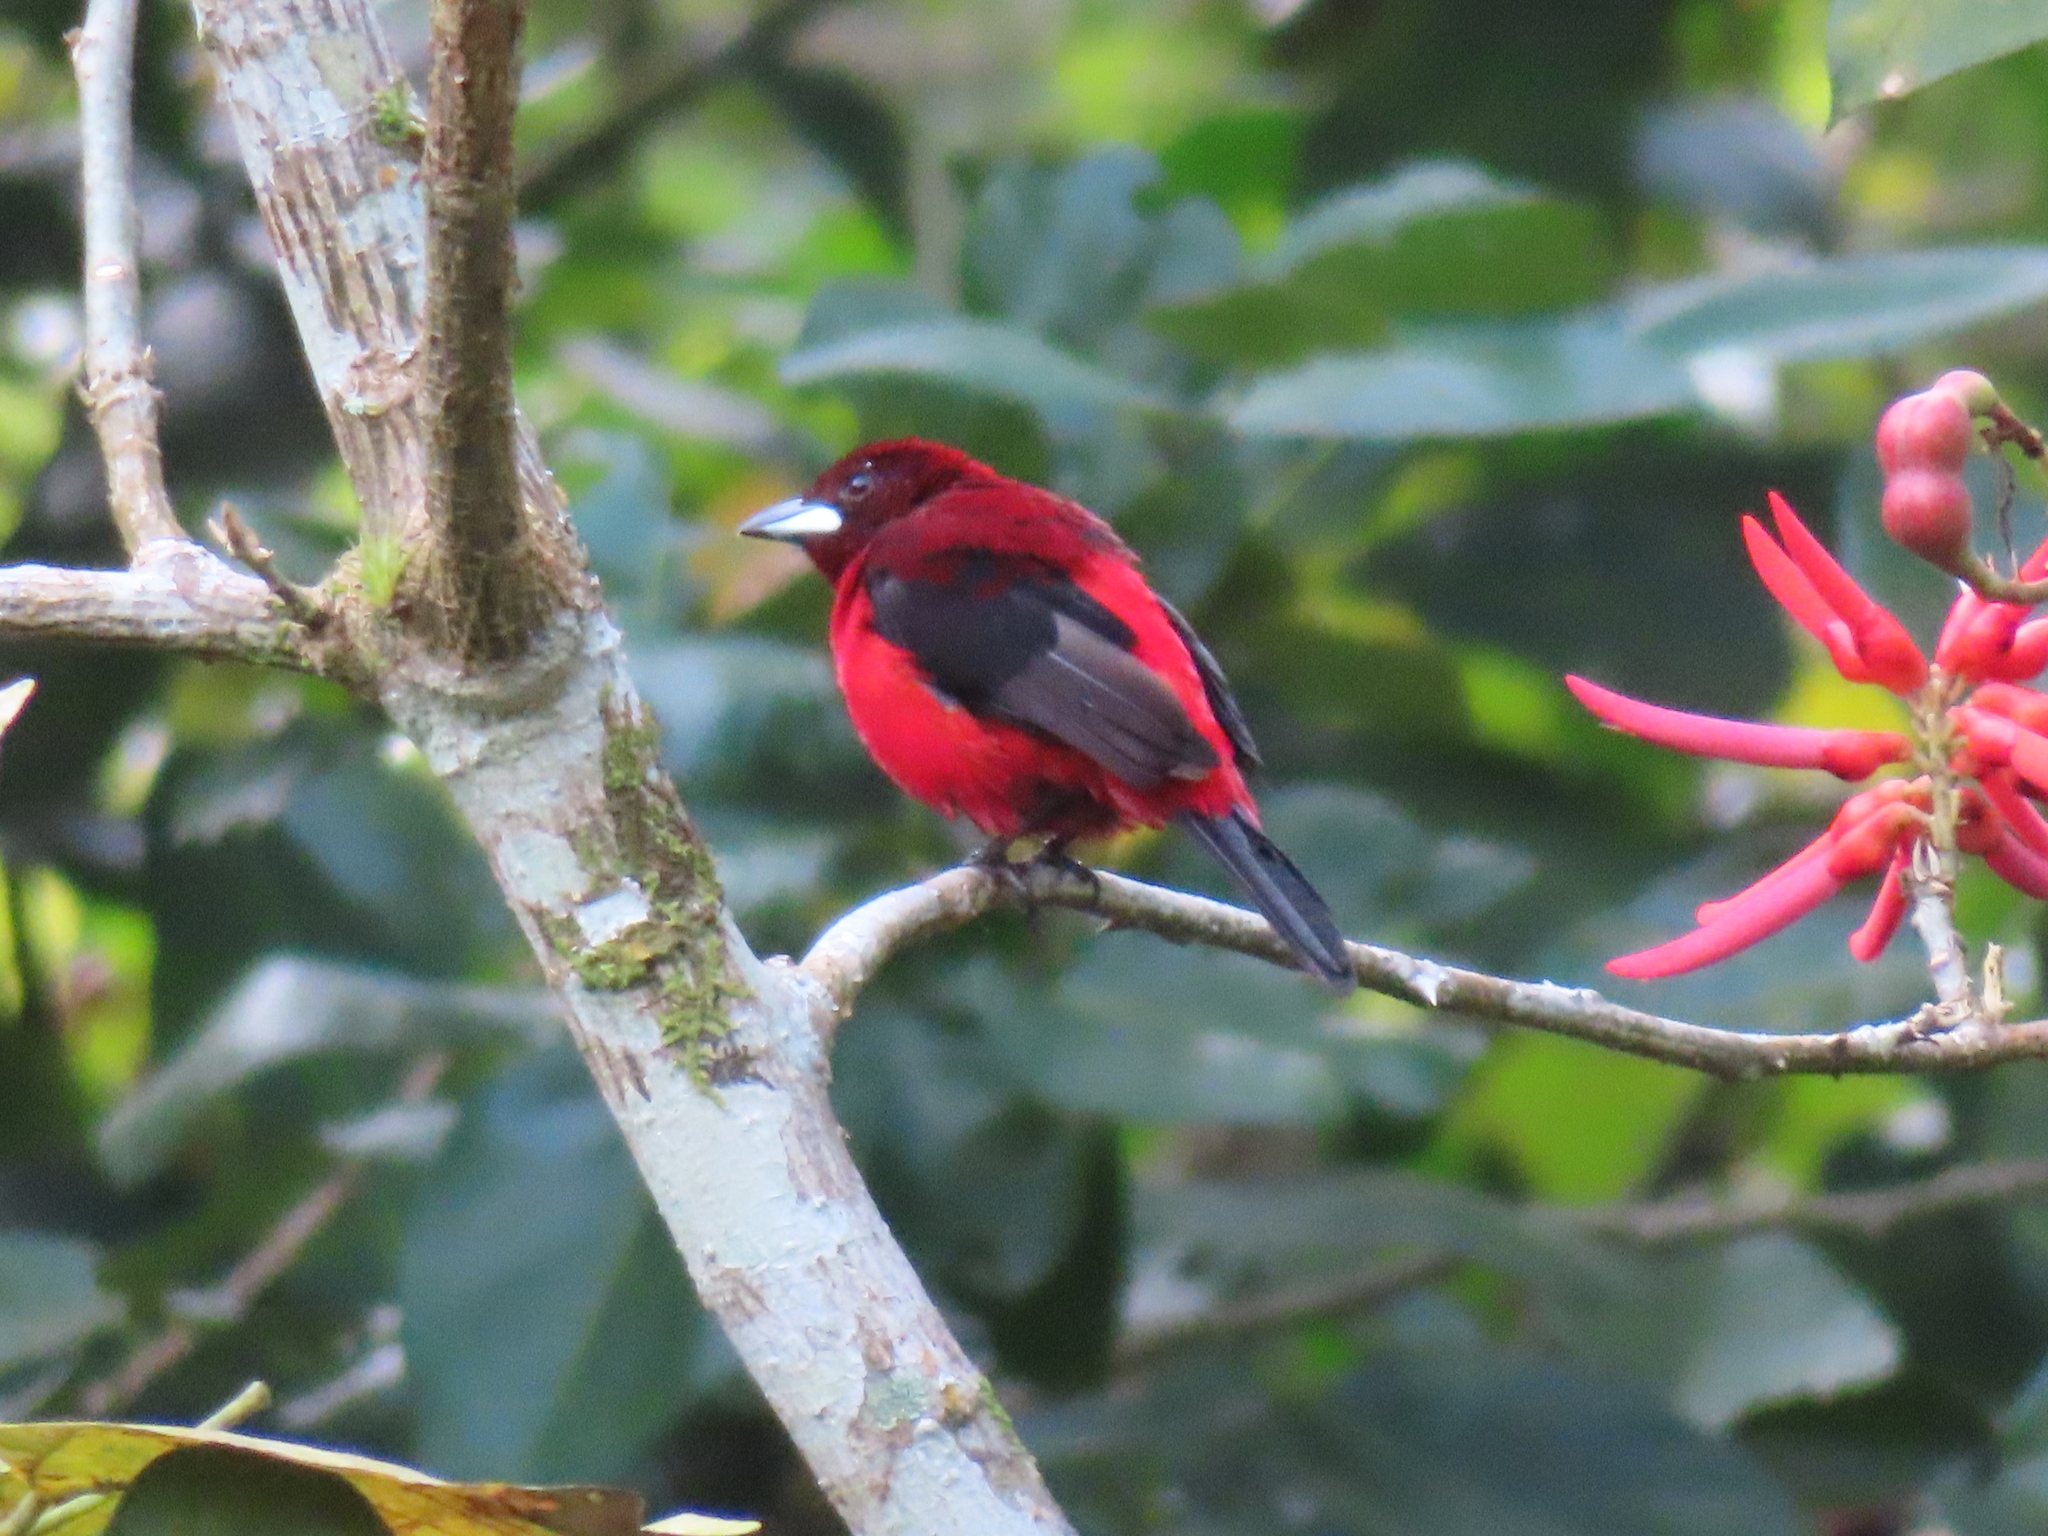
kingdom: Animalia
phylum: Chordata
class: Aves
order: Passeriformes
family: Thraupidae
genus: Ramphocelus
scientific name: Ramphocelus dimidiatus
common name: Crimson-backed tanager
